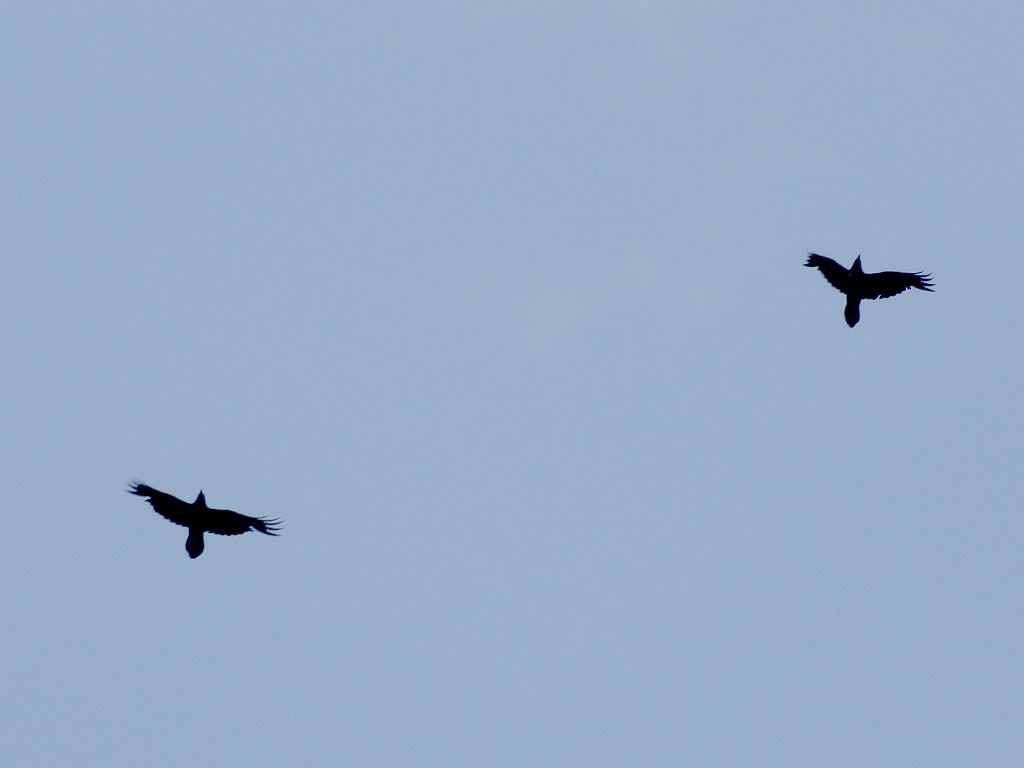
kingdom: Animalia
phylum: Chordata
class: Aves
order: Passeriformes
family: Corvidae
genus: Corvus
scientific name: Corvus corax
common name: Common raven
